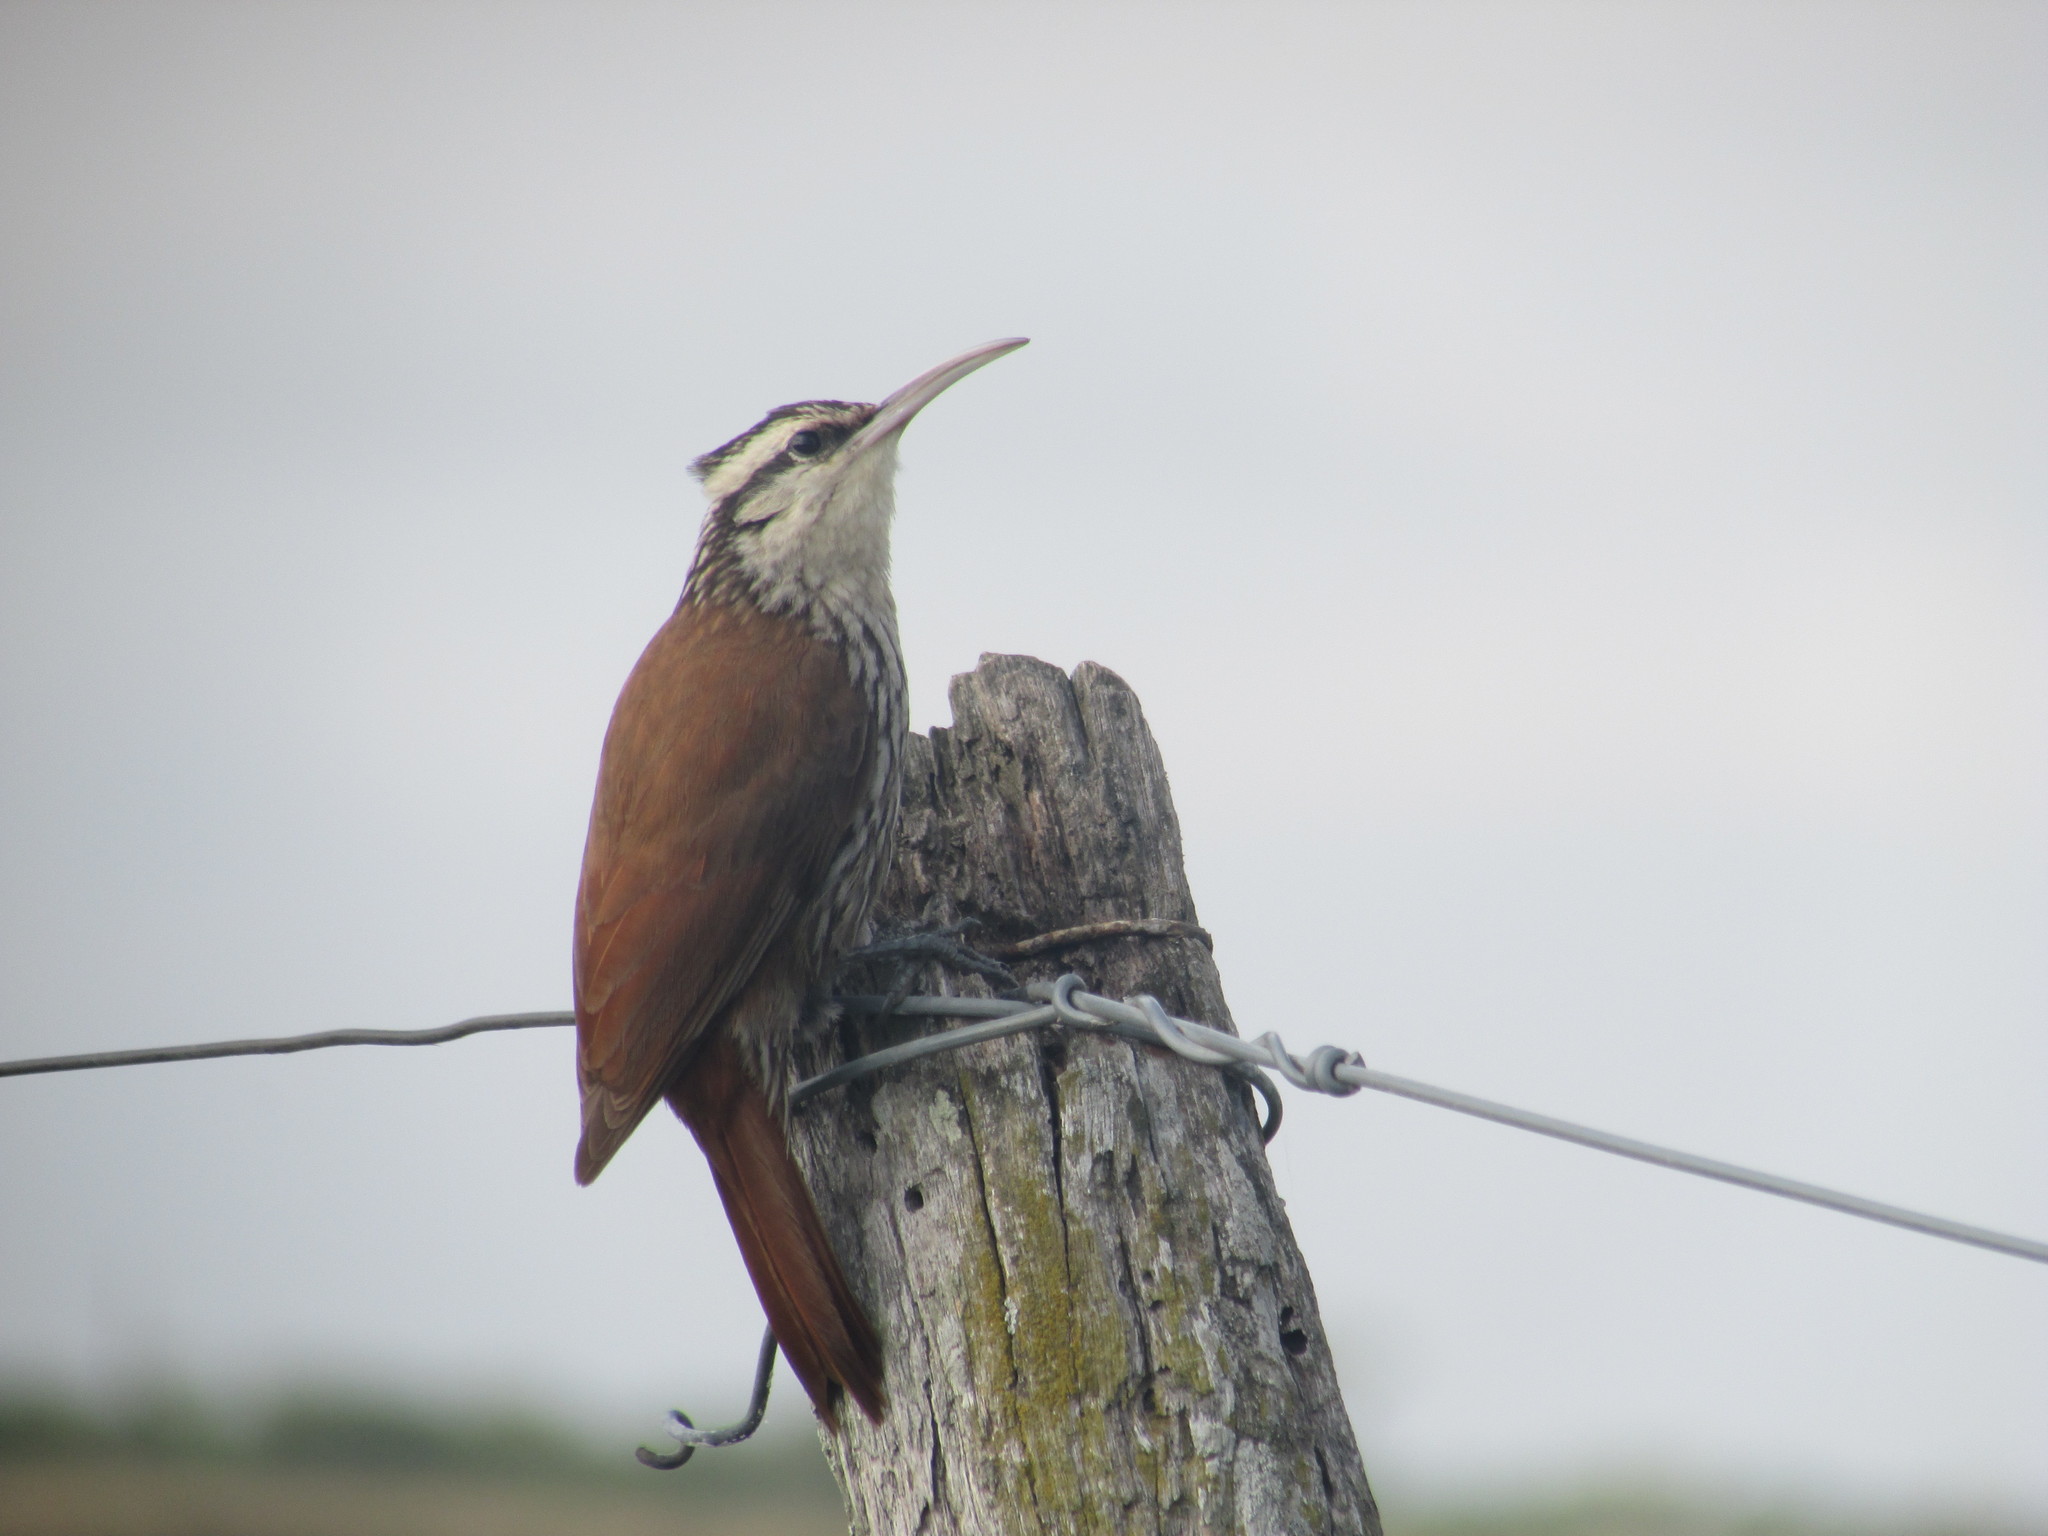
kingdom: Animalia
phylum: Chordata
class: Aves
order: Passeriformes
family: Furnariidae
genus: Lepidocolaptes
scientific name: Lepidocolaptes angustirostris
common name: Narrow-billed woodcreeper
